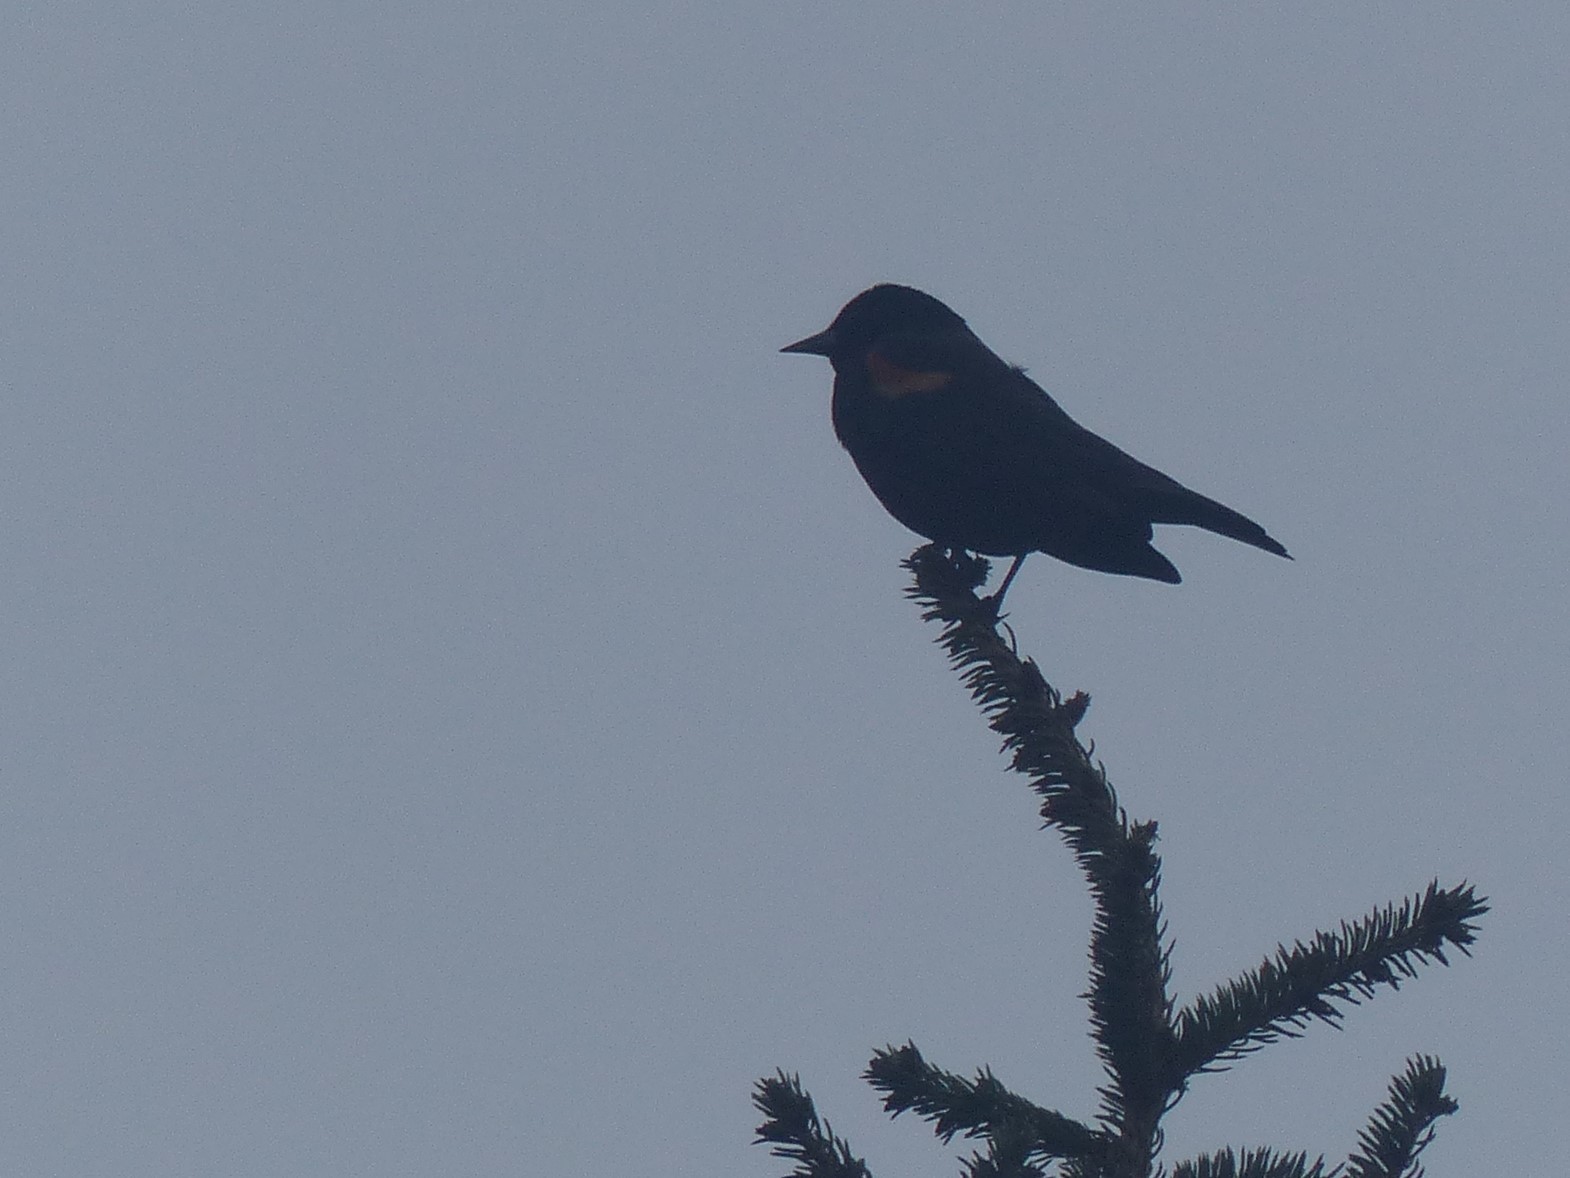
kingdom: Animalia
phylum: Chordata
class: Aves
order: Passeriformes
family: Icteridae
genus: Agelaius
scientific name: Agelaius phoeniceus
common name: Red-winged blackbird
